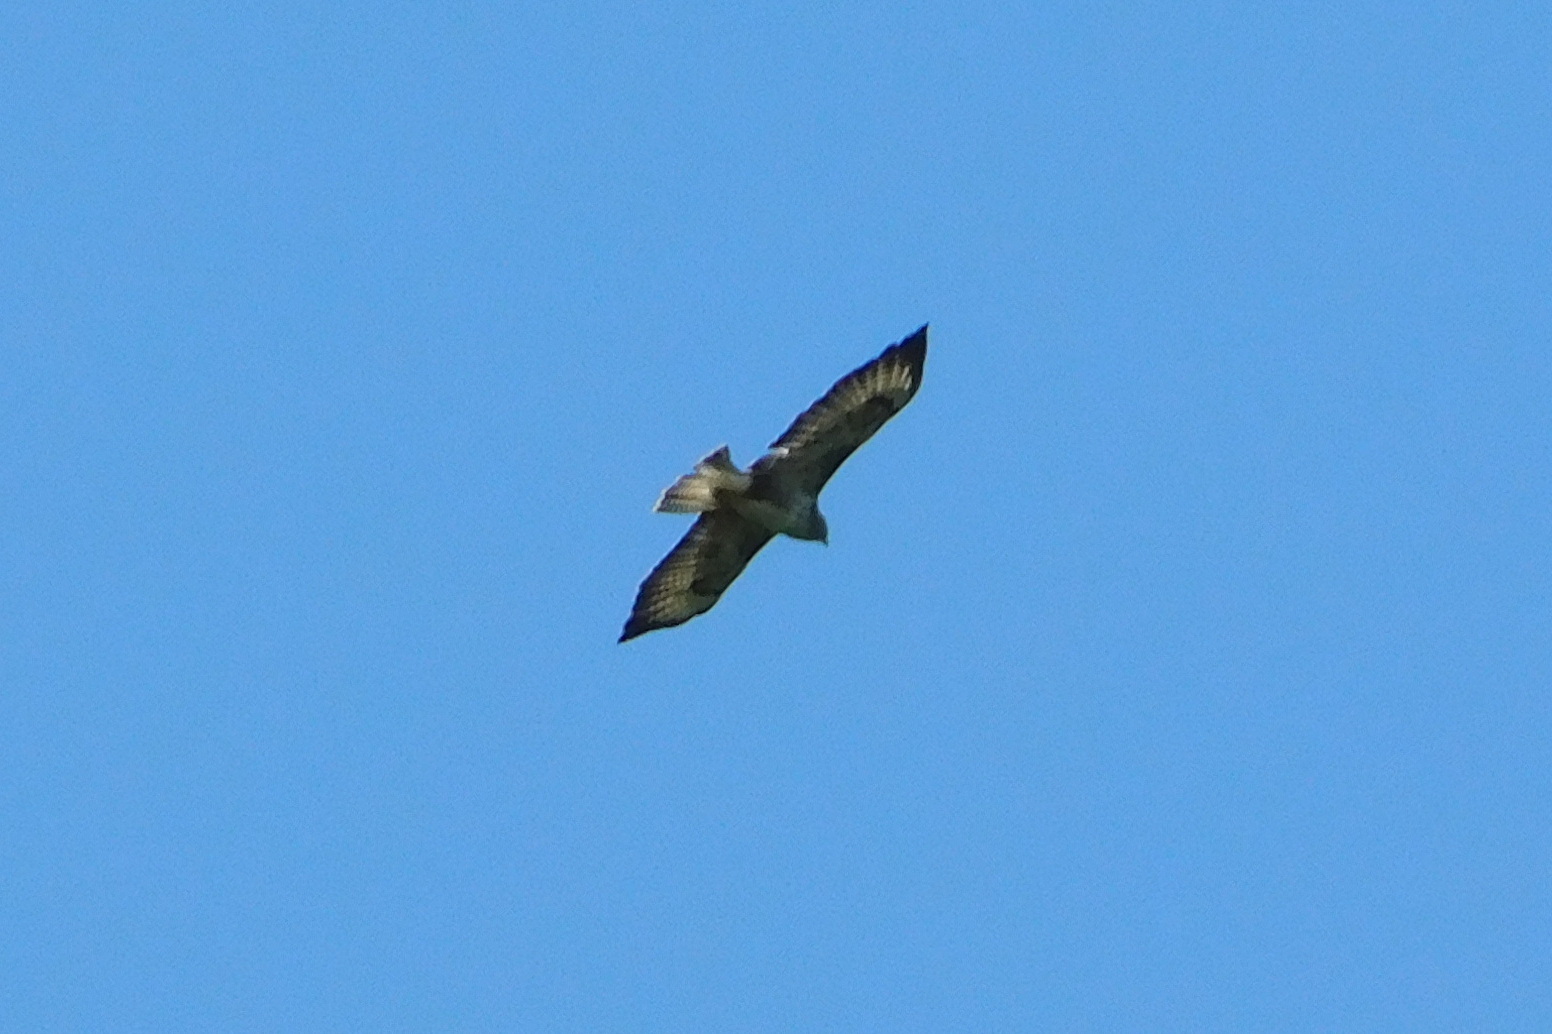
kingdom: Animalia
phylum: Chordata
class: Aves
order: Accipitriformes
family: Accipitridae
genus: Buteo
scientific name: Buteo buteo
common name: Common buzzard
